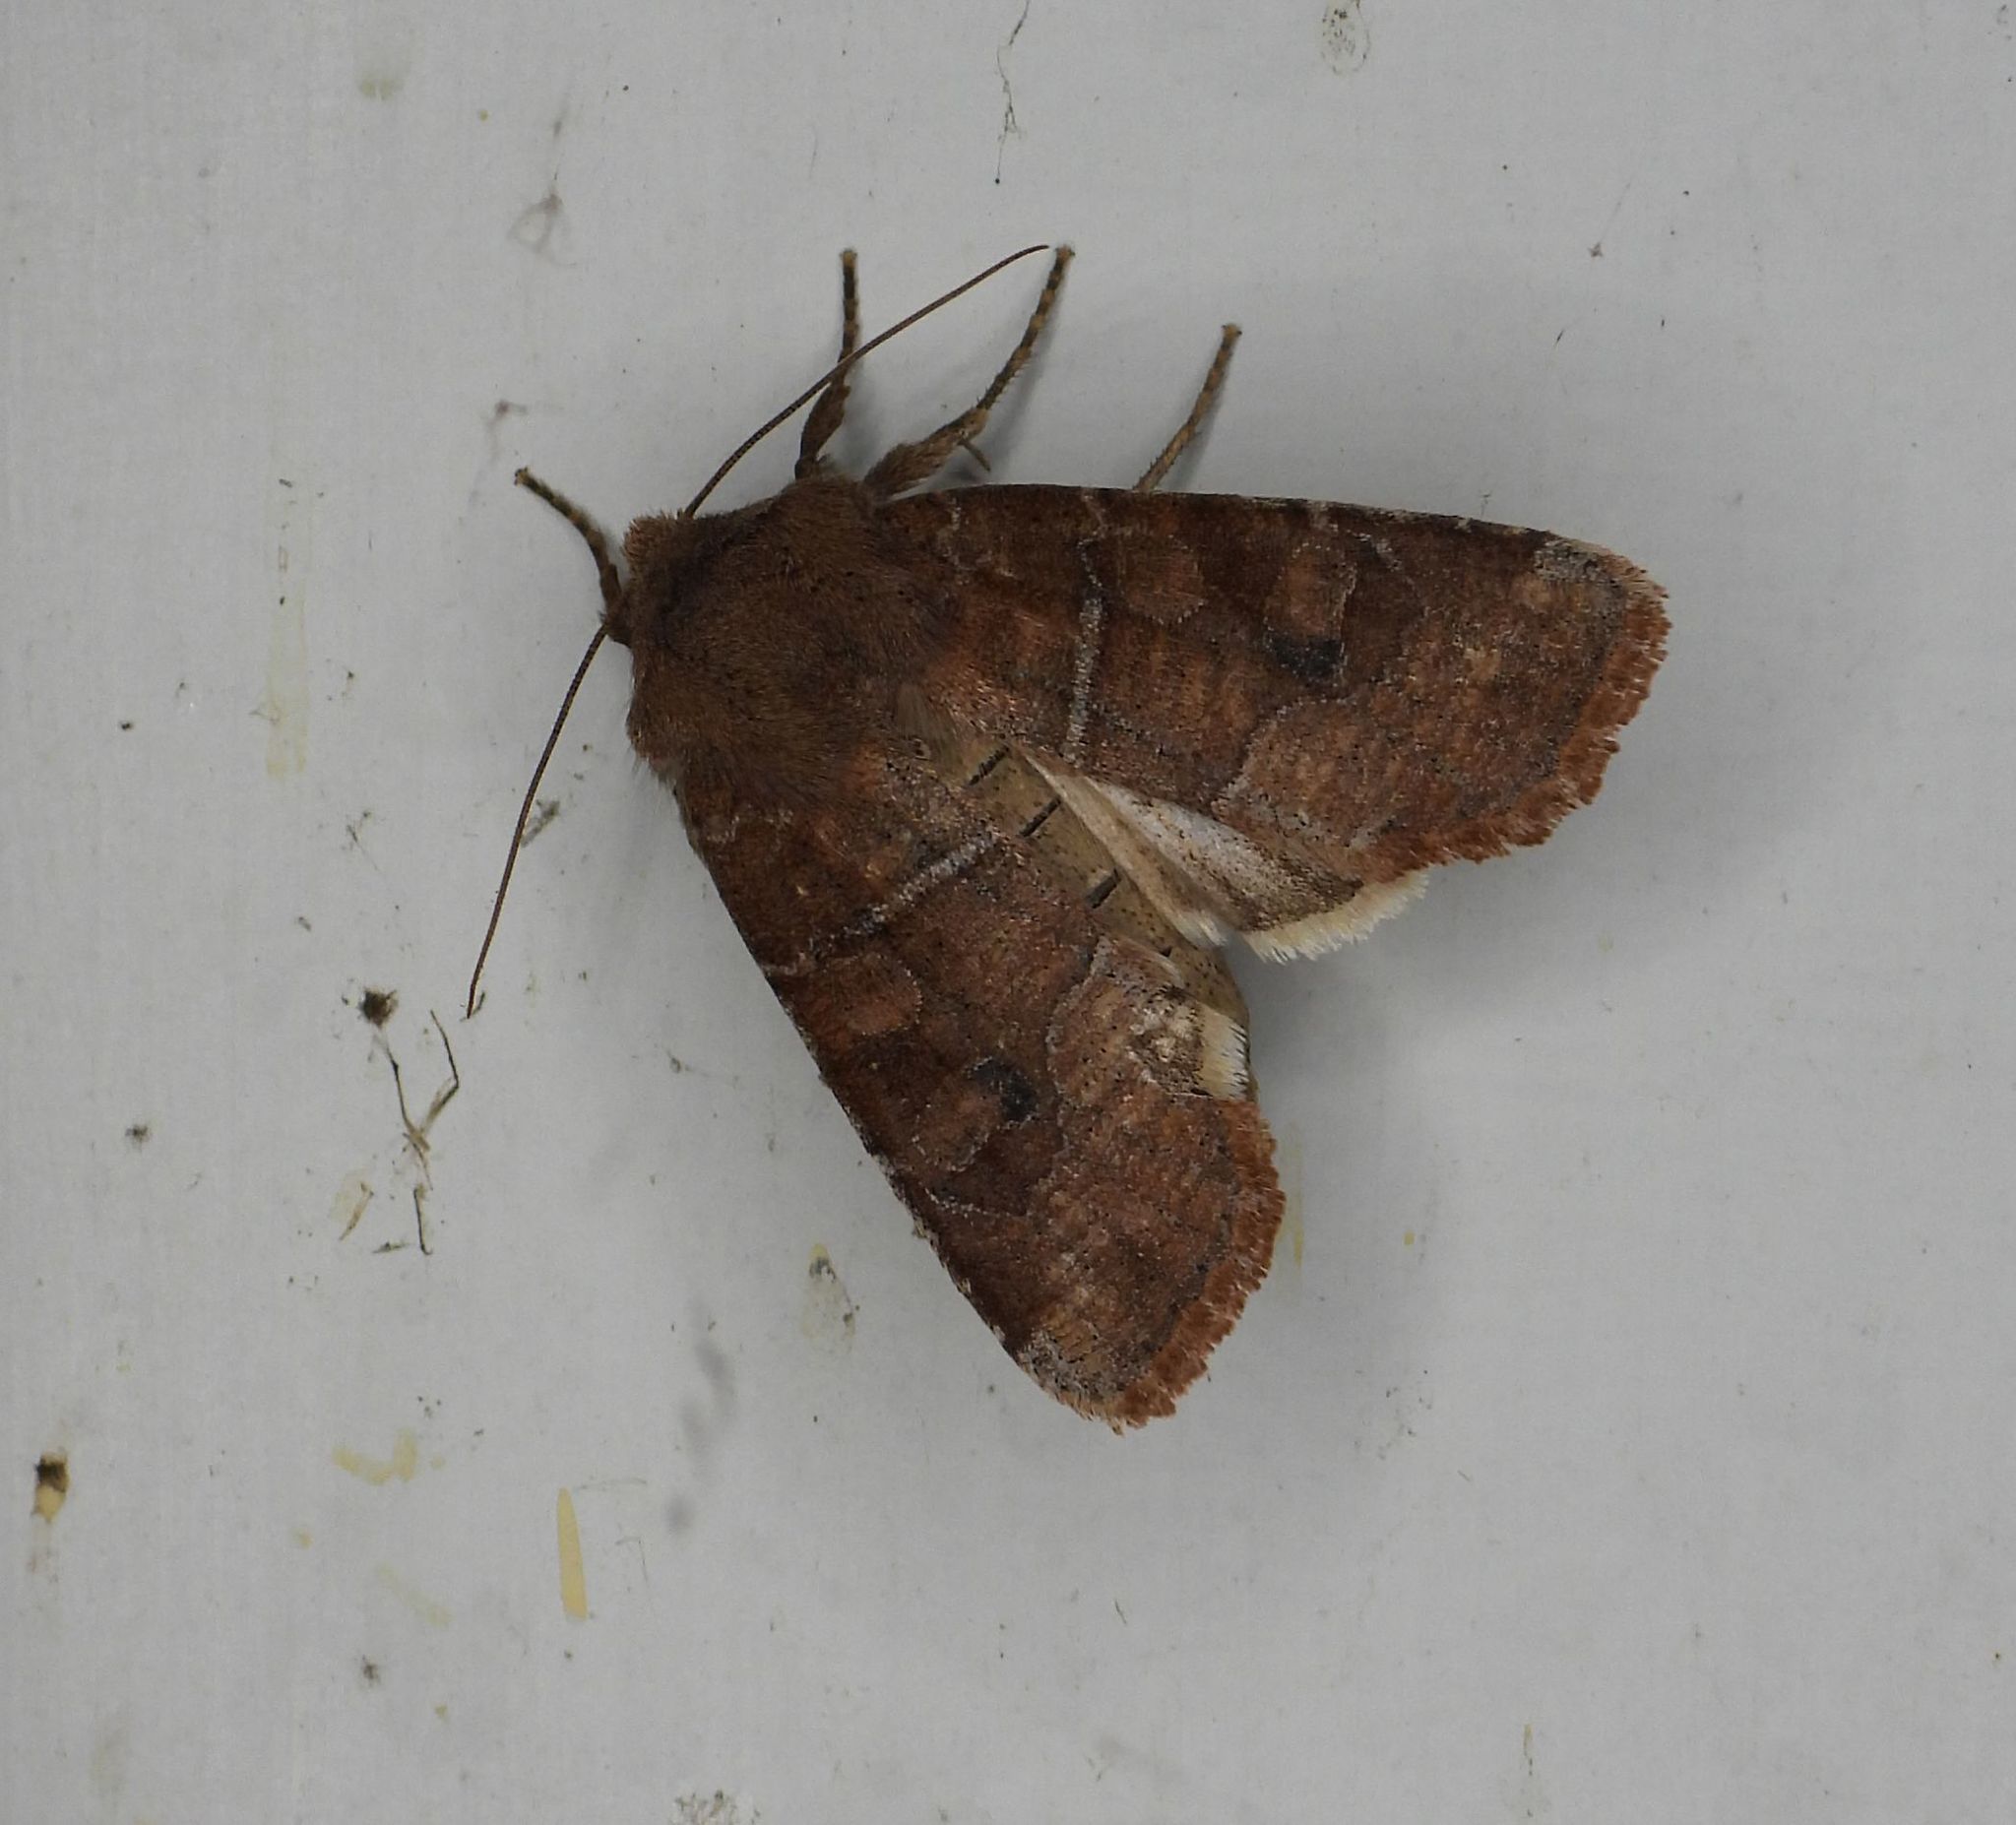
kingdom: Animalia
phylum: Arthropoda
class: Insecta
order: Lepidoptera
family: Noctuidae
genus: Crocigrapha
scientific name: Crocigrapha normani
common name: Norman's quaker
